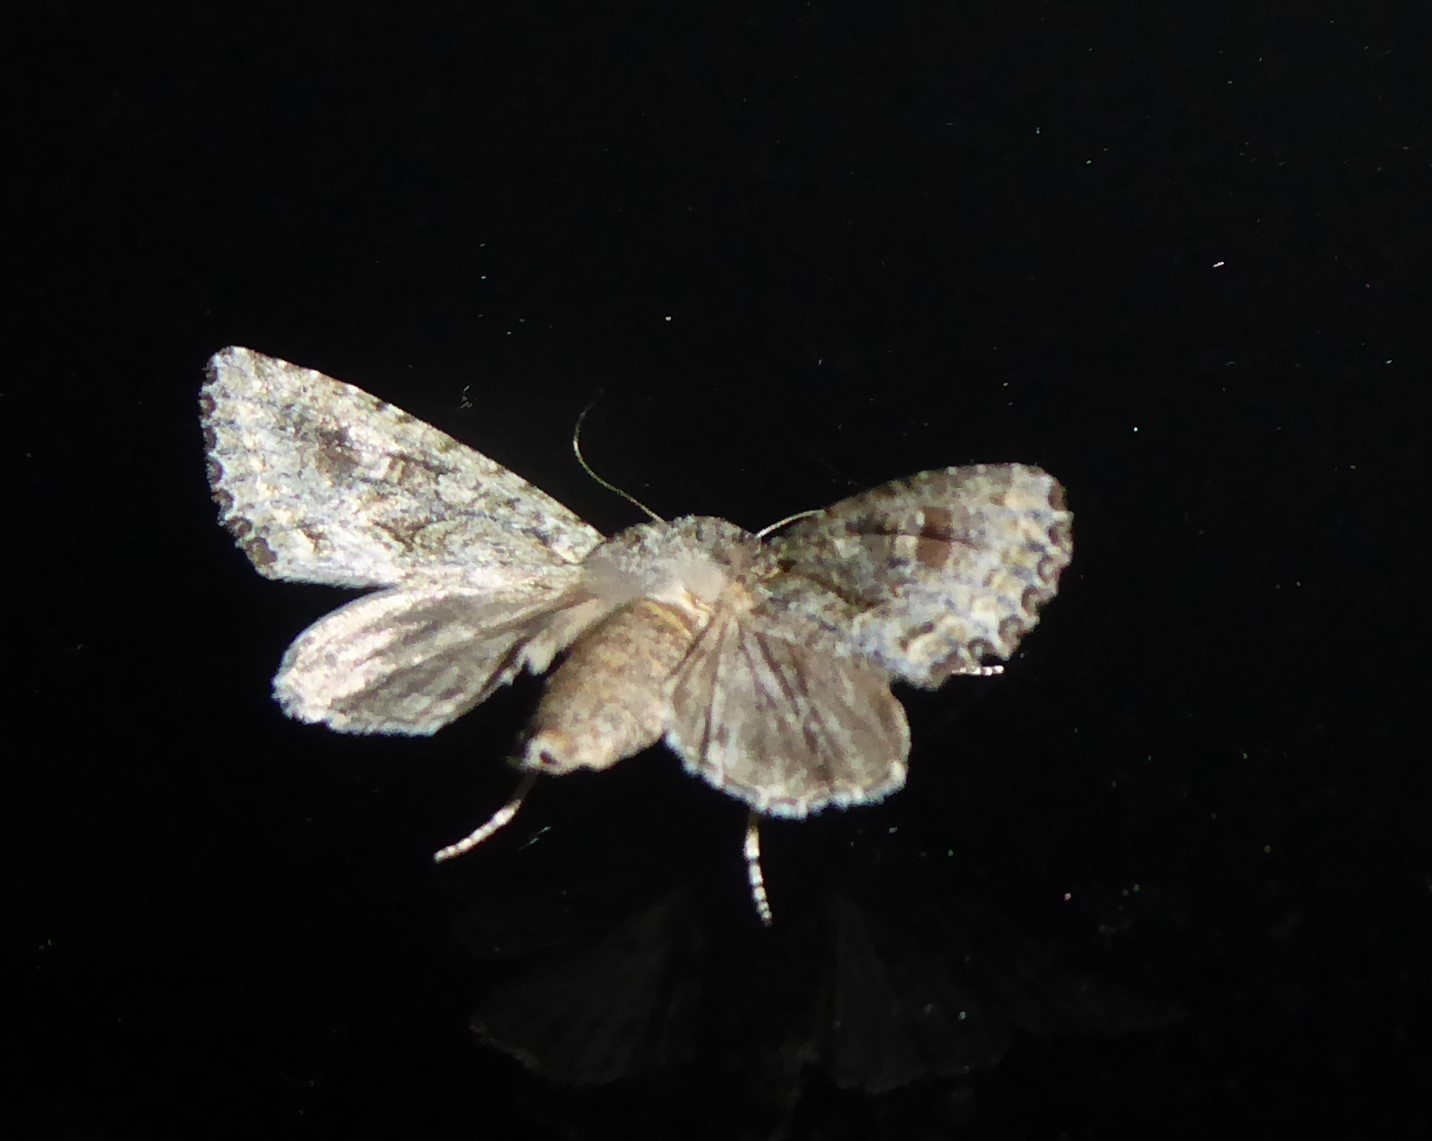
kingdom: Animalia
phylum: Arthropoda
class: Insecta
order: Lepidoptera
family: Noctuidae
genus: Ichneutica
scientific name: Ichneutica mutans
